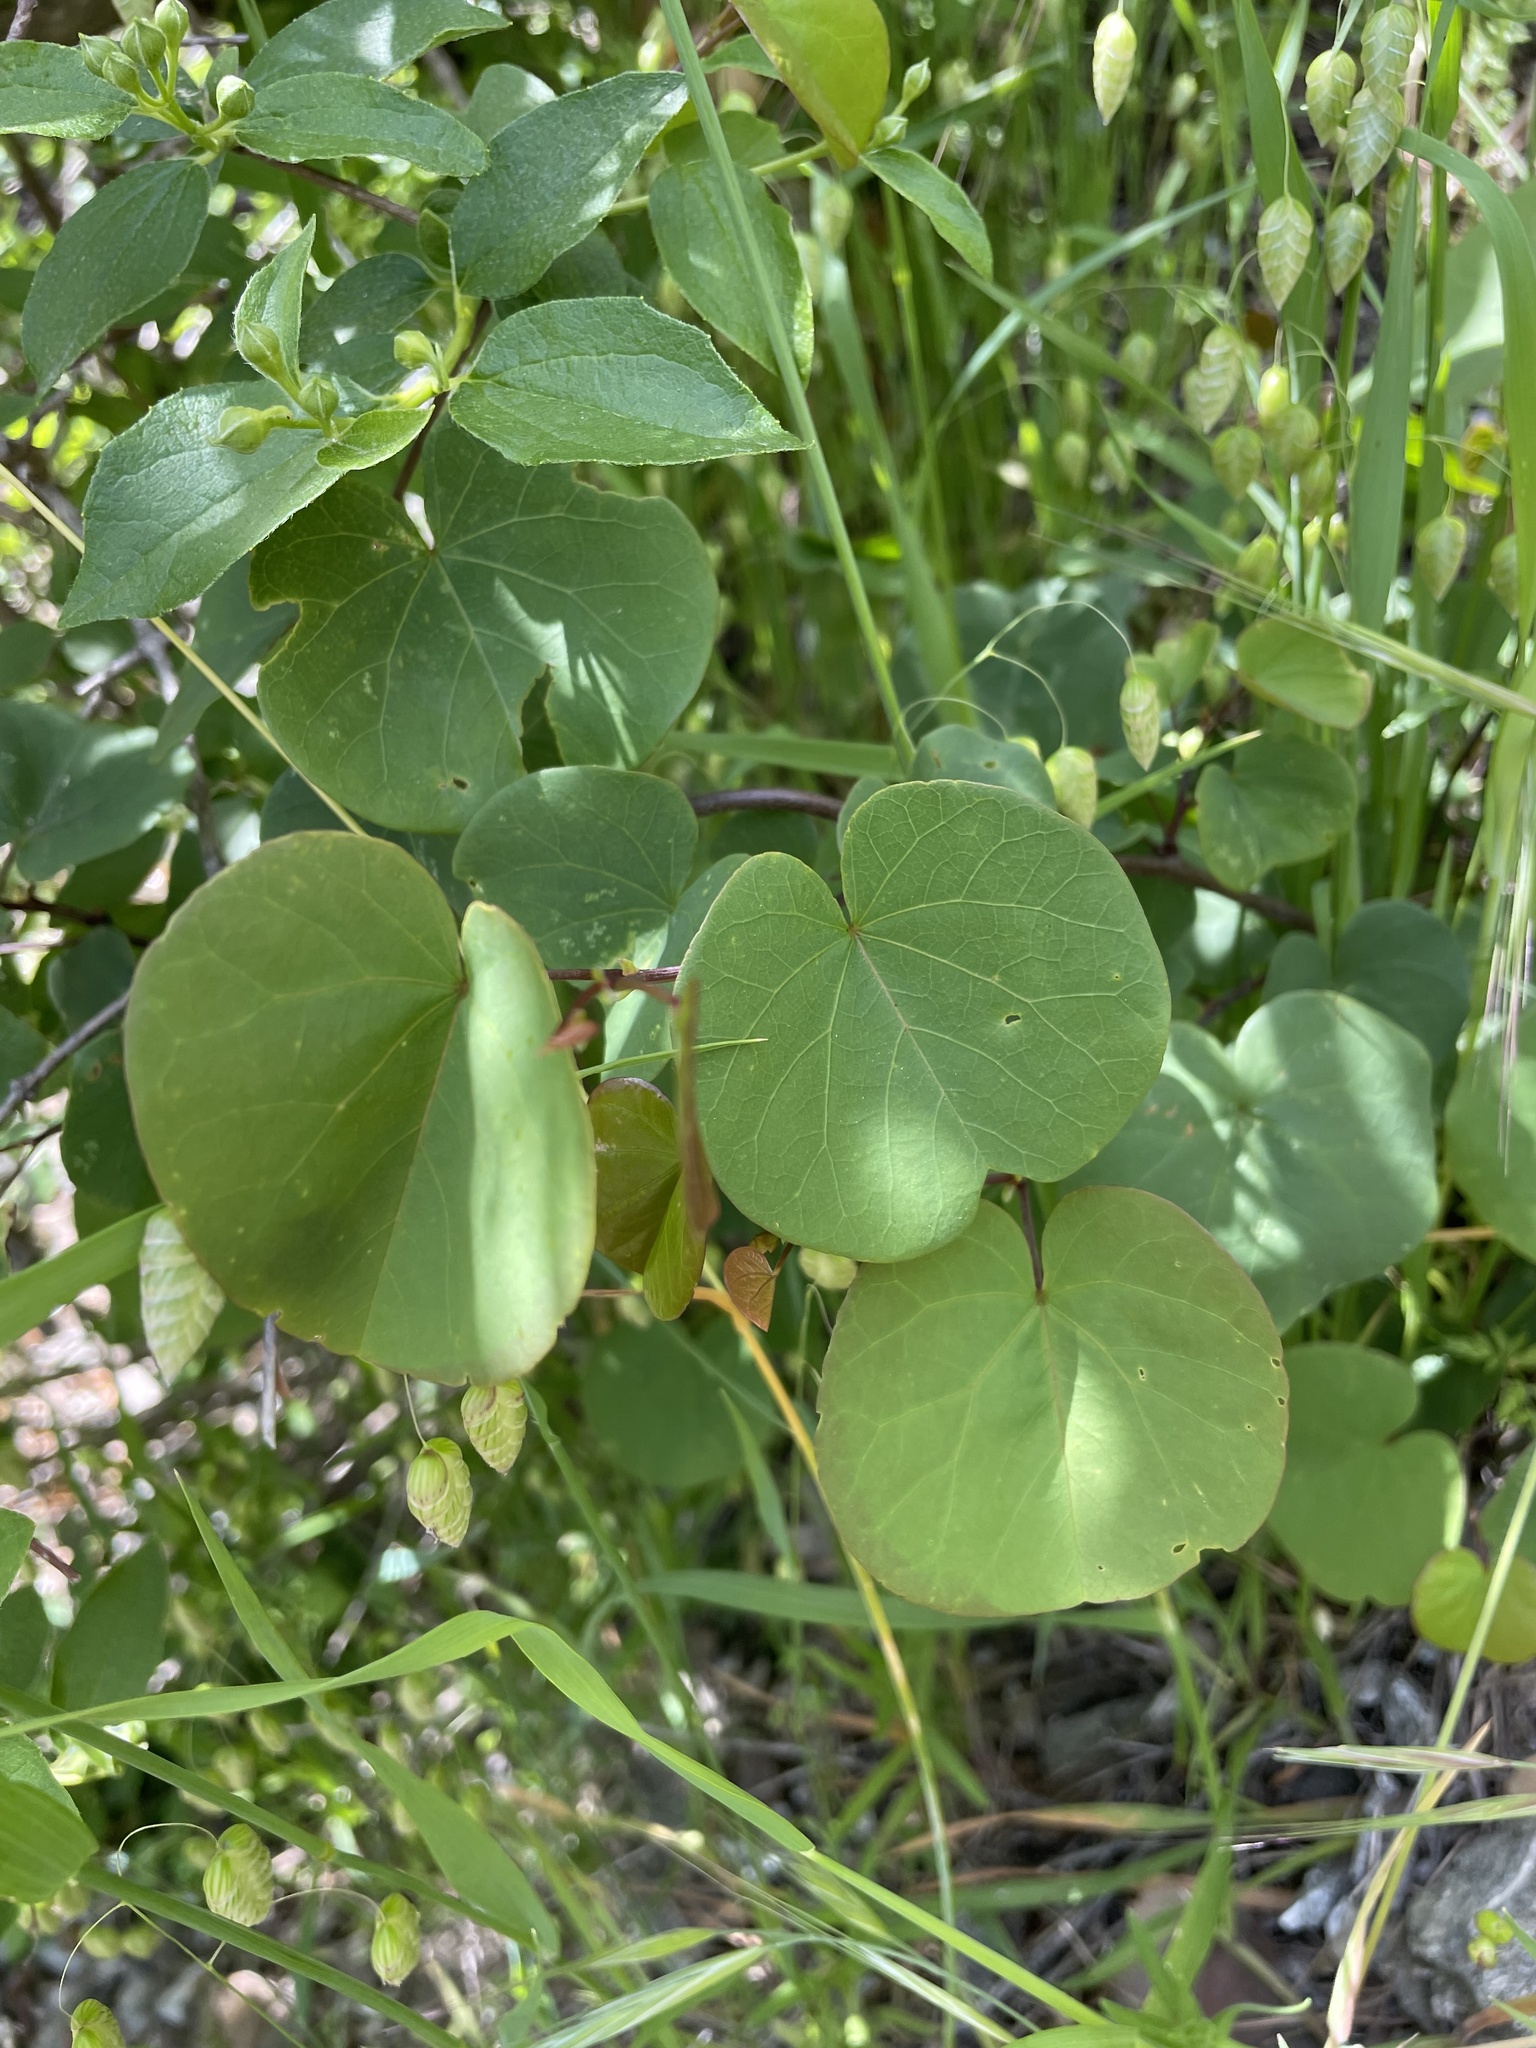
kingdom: Plantae
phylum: Tracheophyta
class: Magnoliopsida
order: Fabales
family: Fabaceae
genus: Cercis
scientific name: Cercis occidentalis
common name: California redbud
